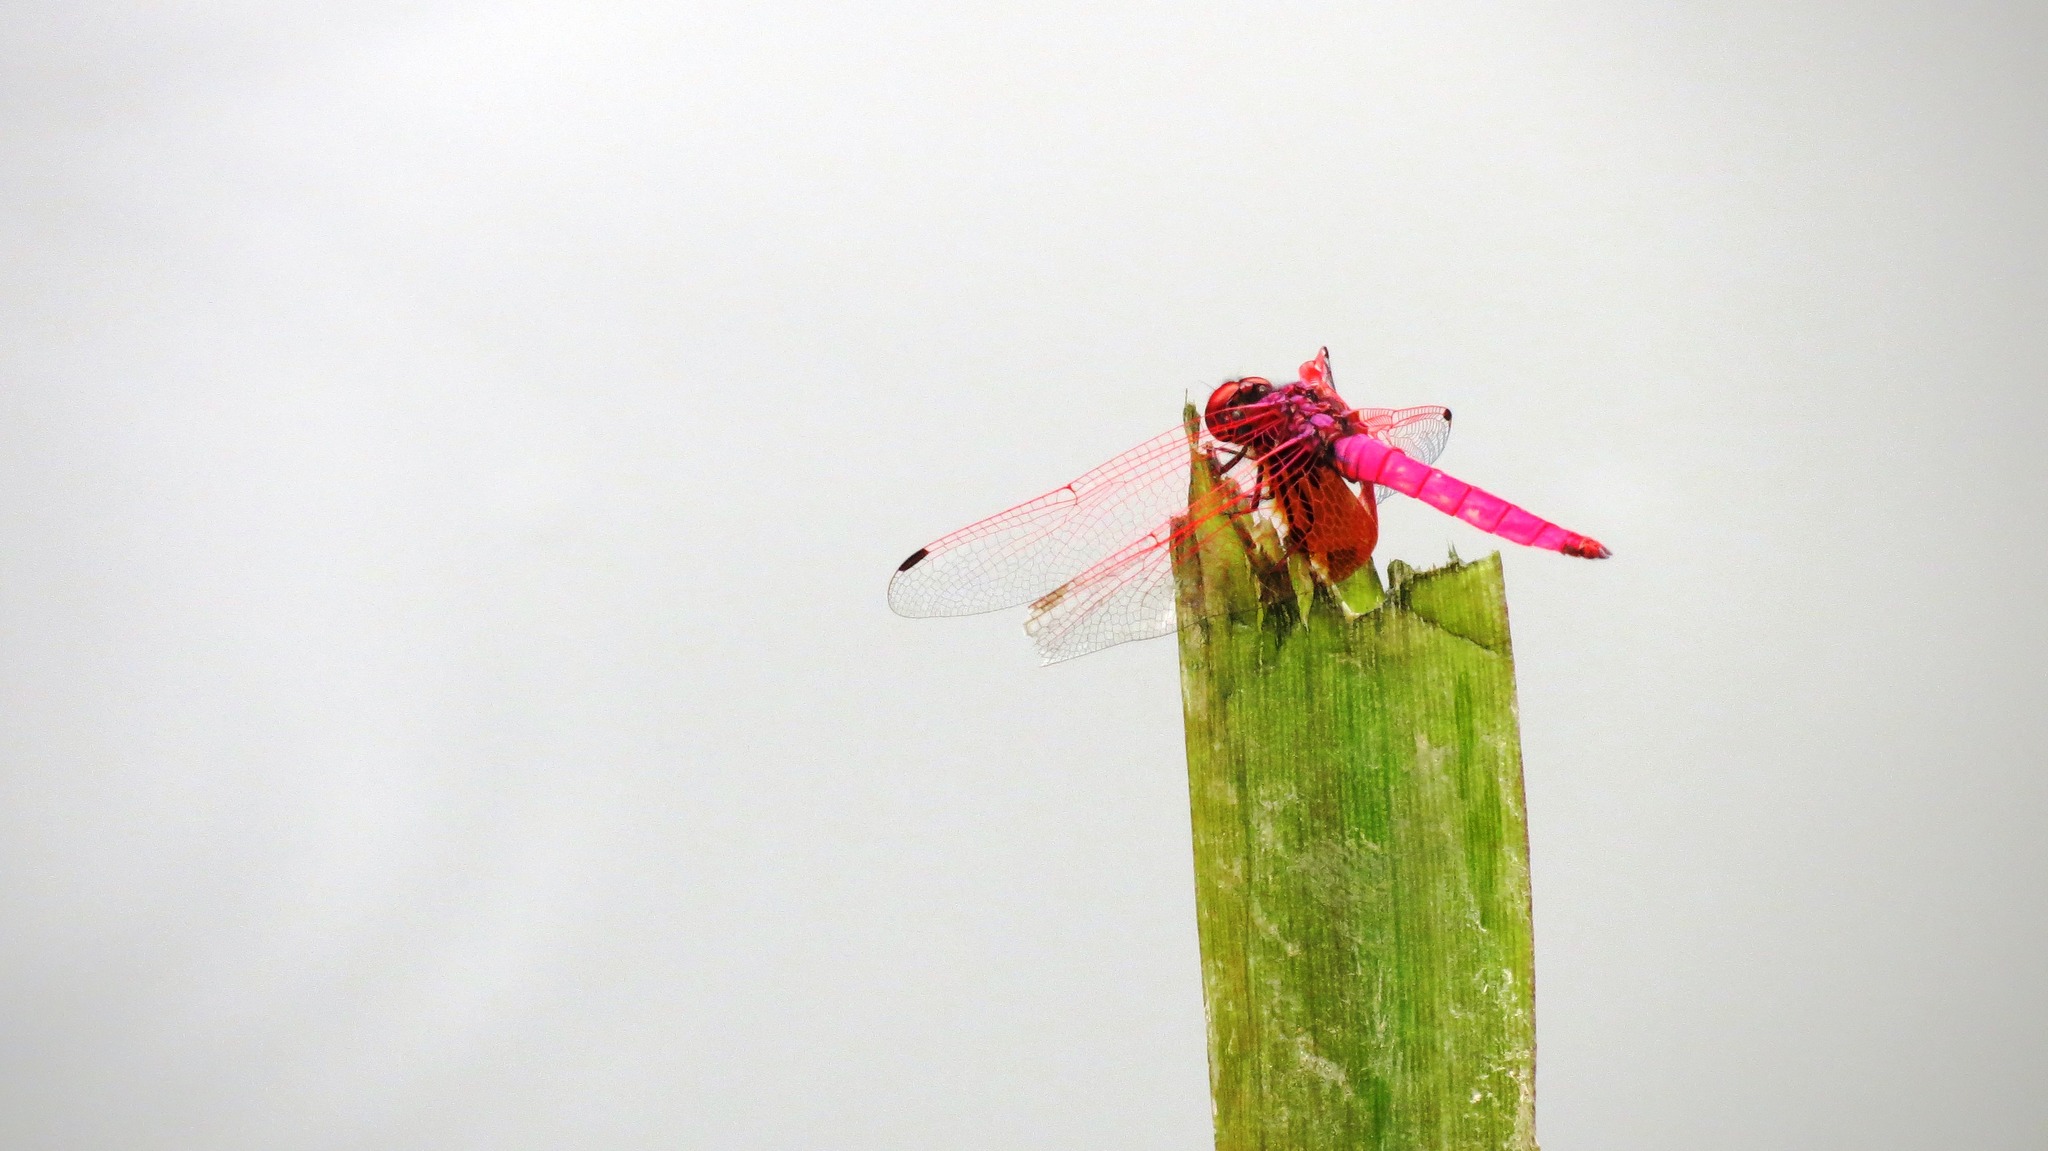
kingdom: Animalia
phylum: Arthropoda
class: Insecta
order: Odonata
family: Libellulidae
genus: Trithemis
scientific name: Trithemis aurora
